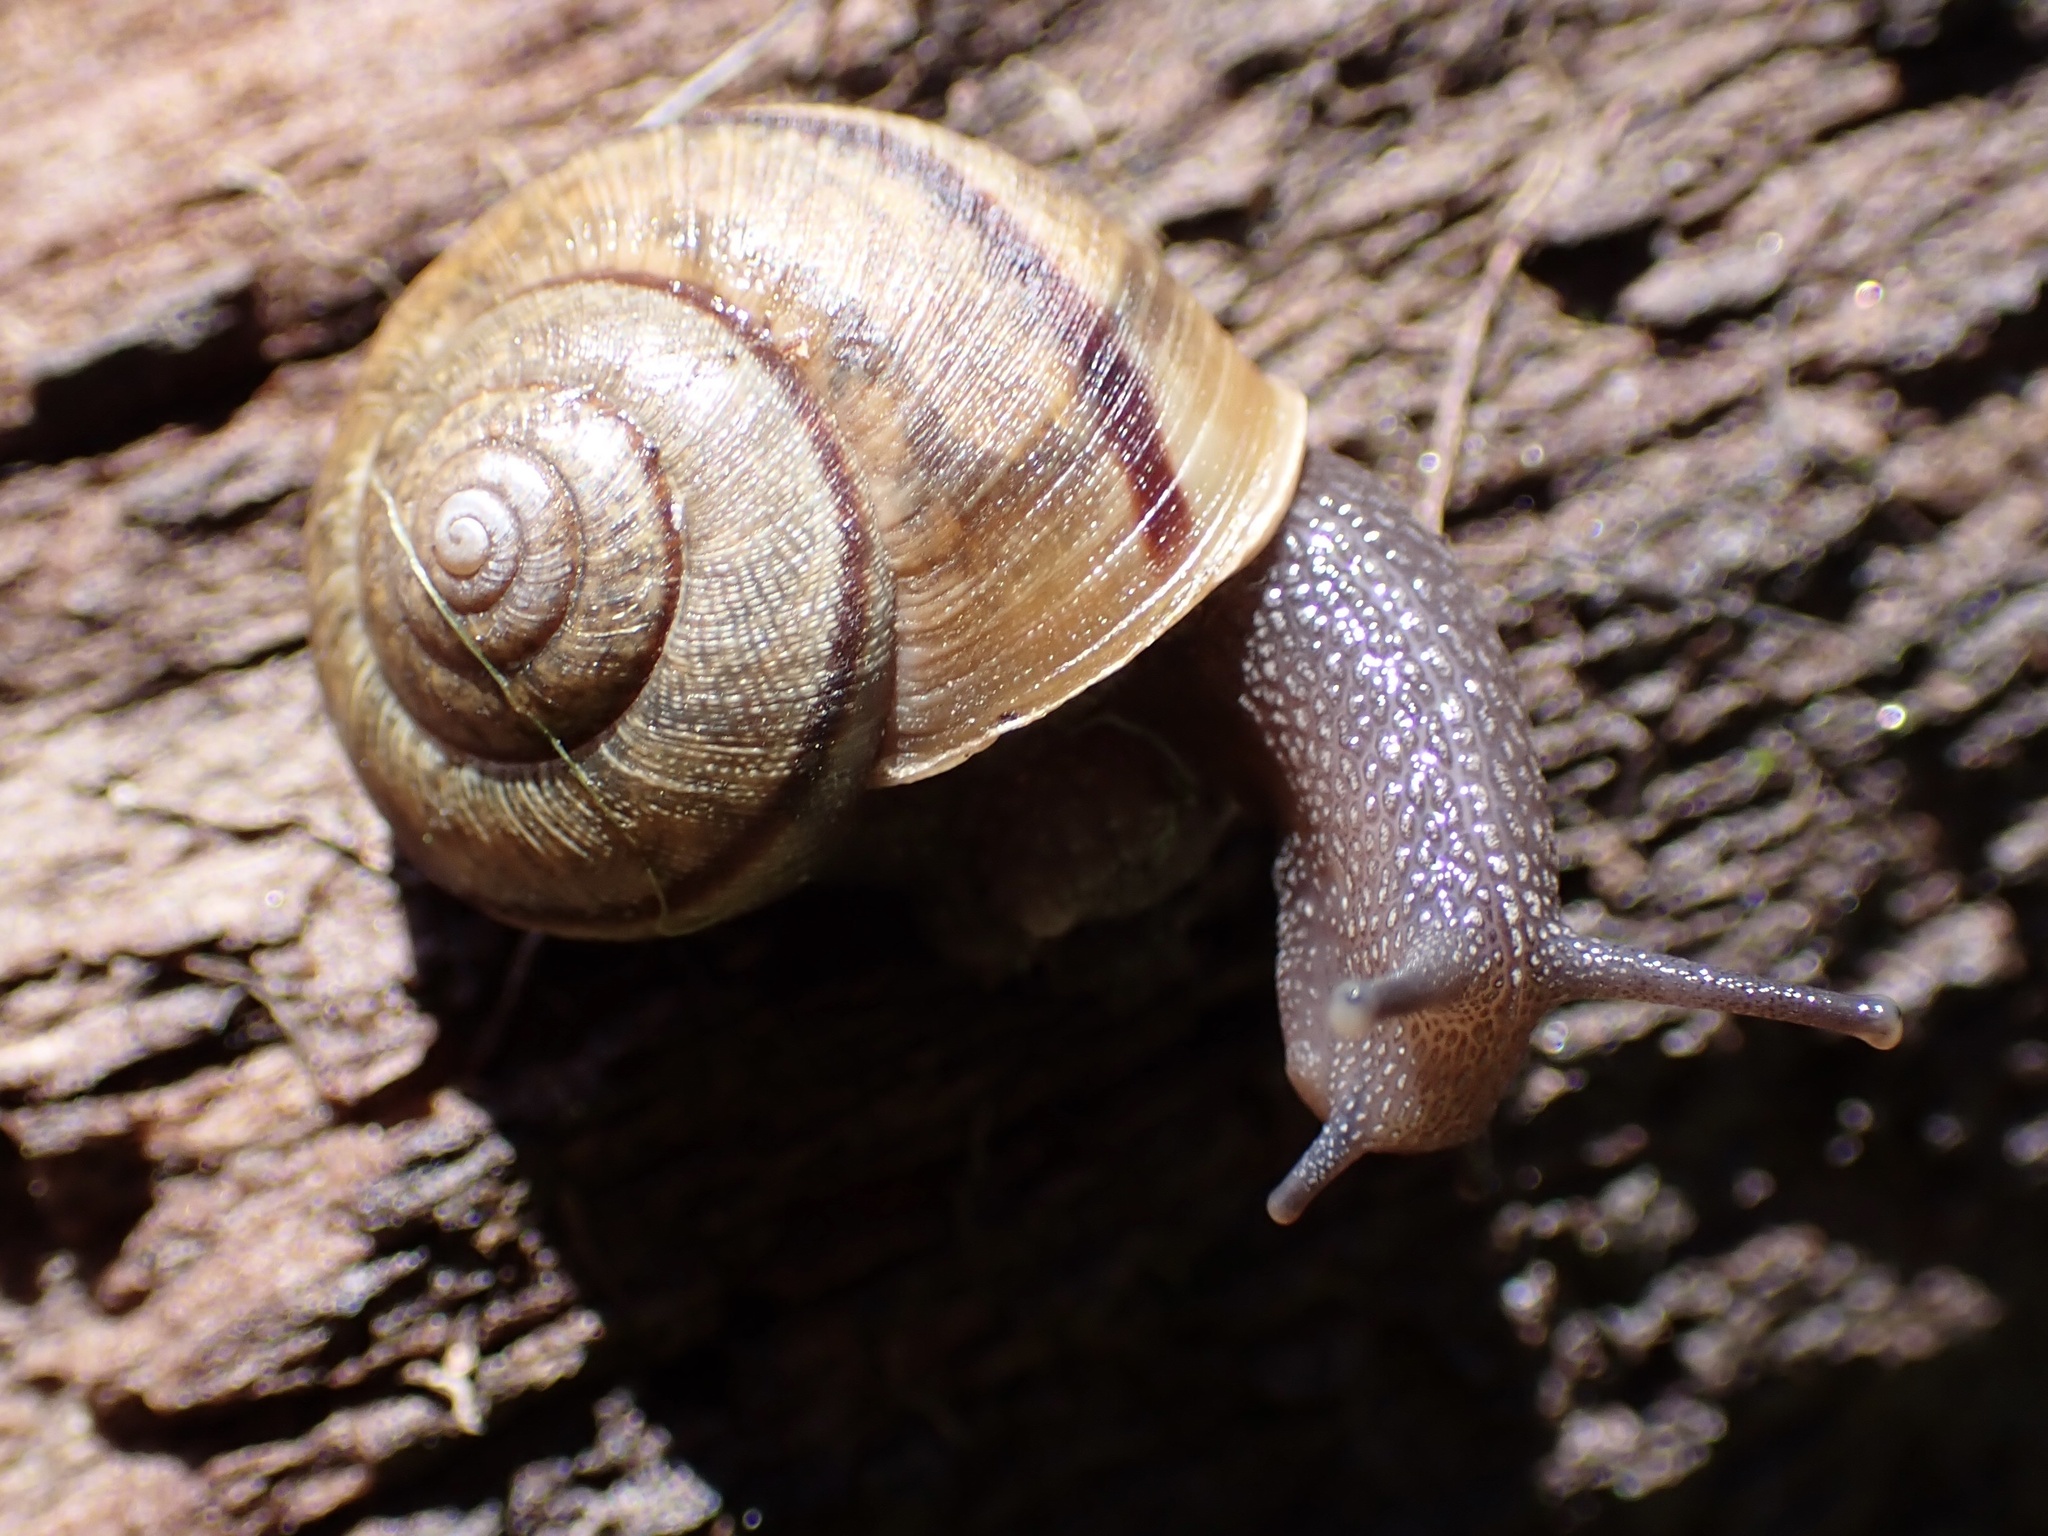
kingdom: Animalia
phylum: Mollusca
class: Gastropoda
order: Stylommatophora
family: Xanthonychidae
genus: Helminthoglypta
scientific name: Helminthoglypta nickliniana
